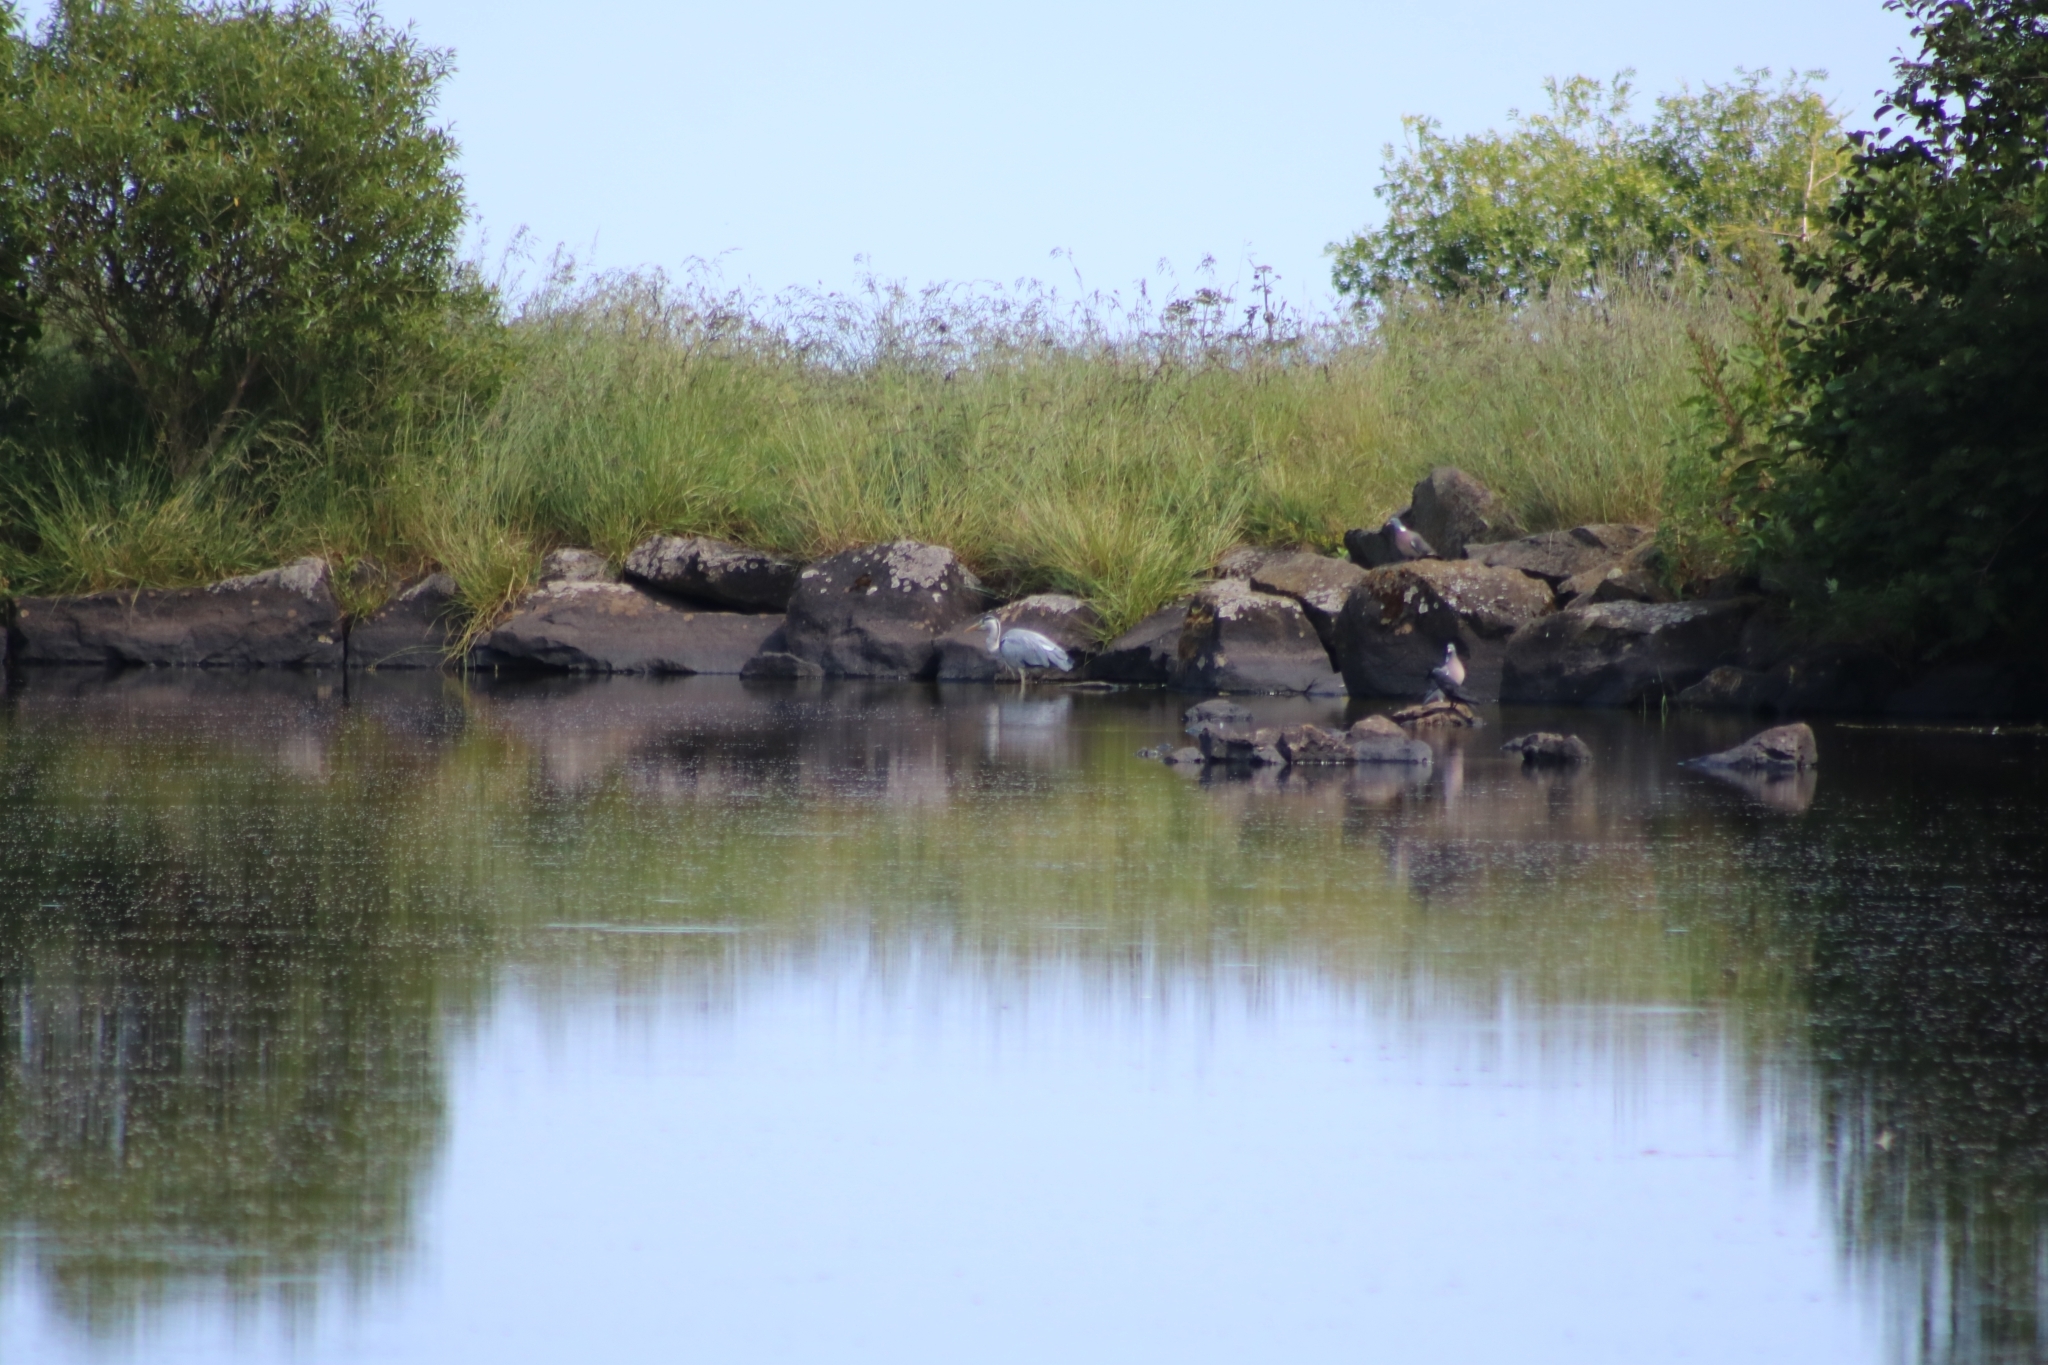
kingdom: Animalia
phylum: Chordata
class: Aves
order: Pelecaniformes
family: Ardeidae
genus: Ardea
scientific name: Ardea cinerea
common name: Grey heron
